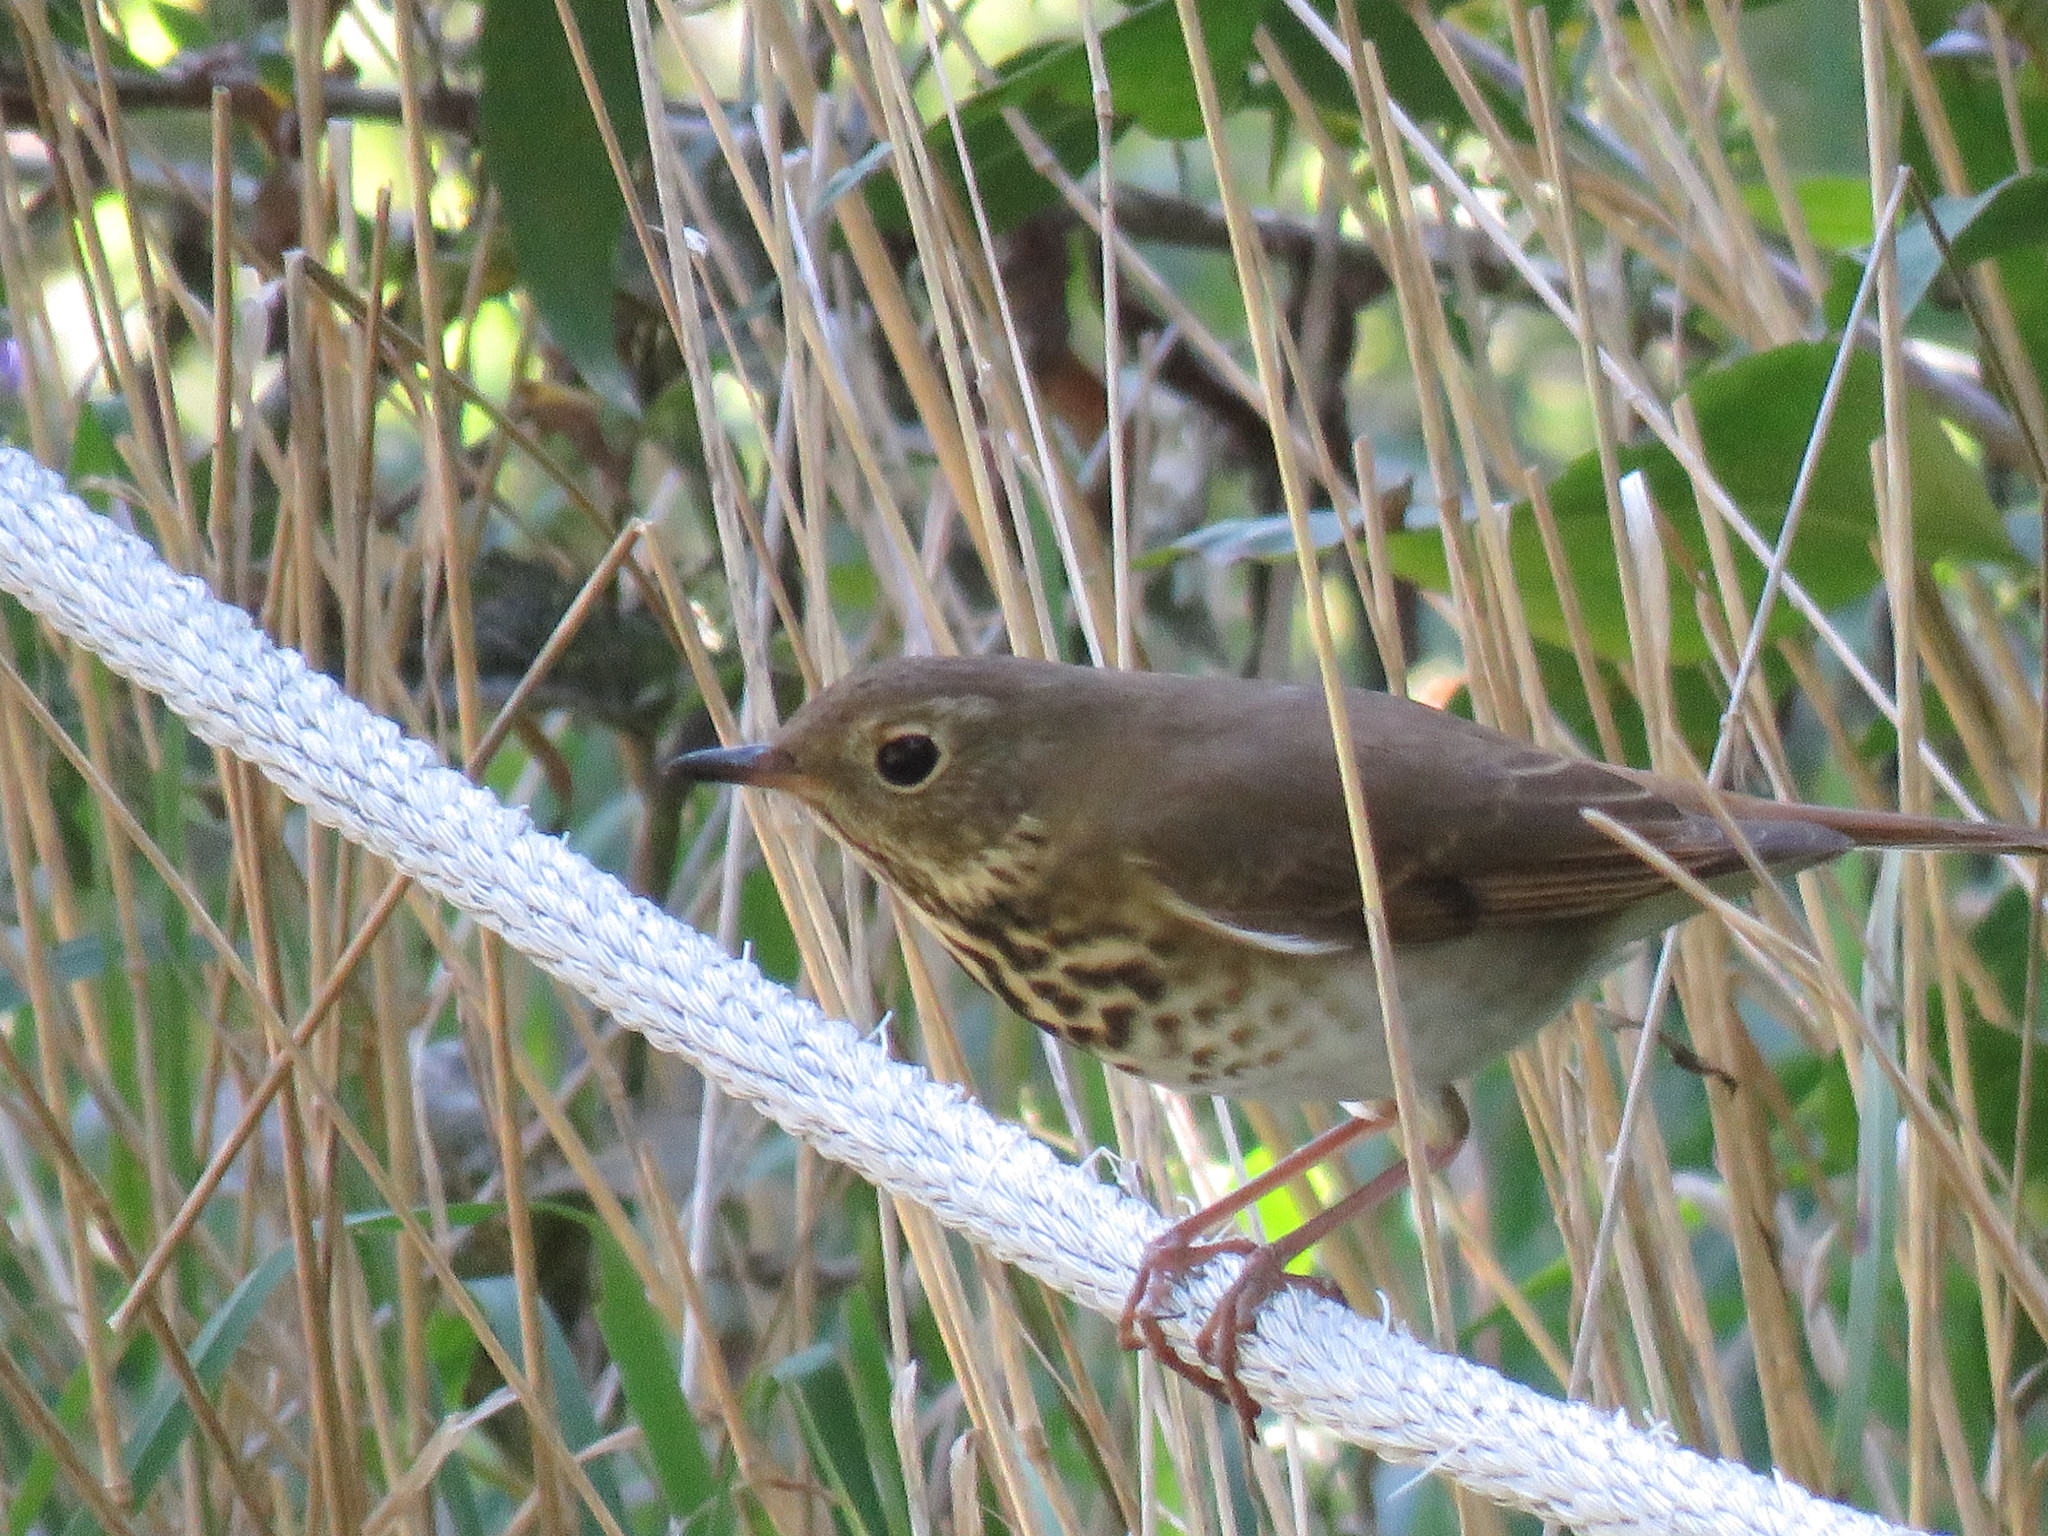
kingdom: Animalia
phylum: Chordata
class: Aves
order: Passeriformes
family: Turdidae
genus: Catharus
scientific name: Catharus guttatus
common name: Hermit thrush
